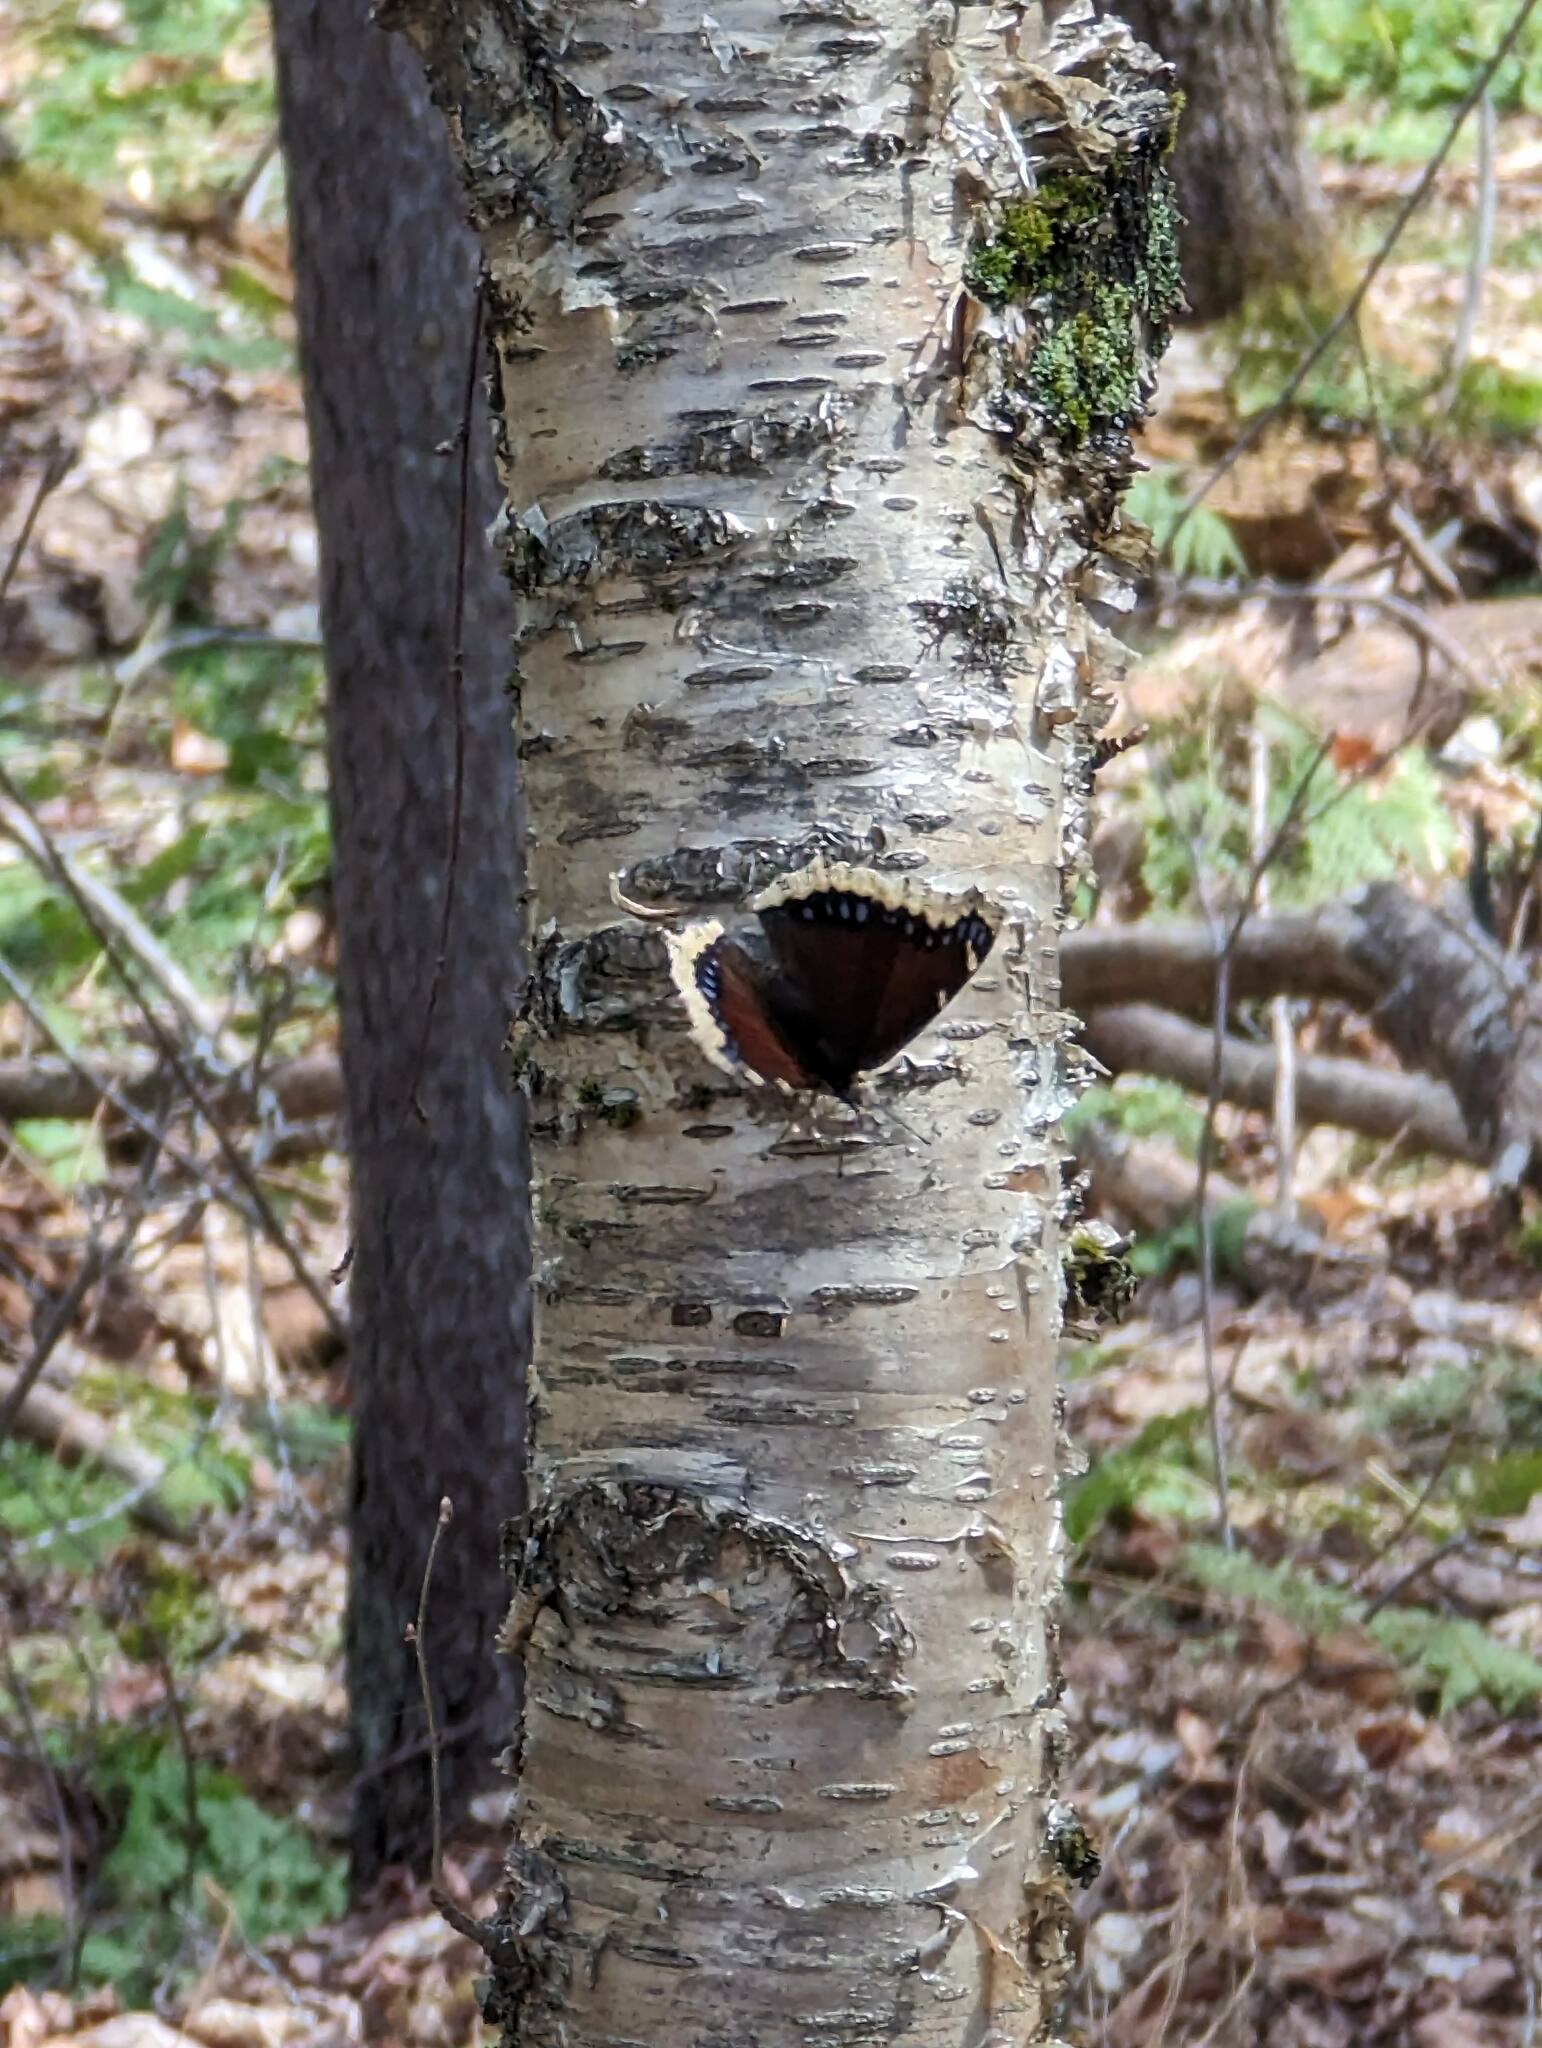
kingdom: Animalia
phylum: Arthropoda
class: Insecta
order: Lepidoptera
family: Nymphalidae
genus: Nymphalis
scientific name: Nymphalis antiopa
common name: Camberwell beauty
